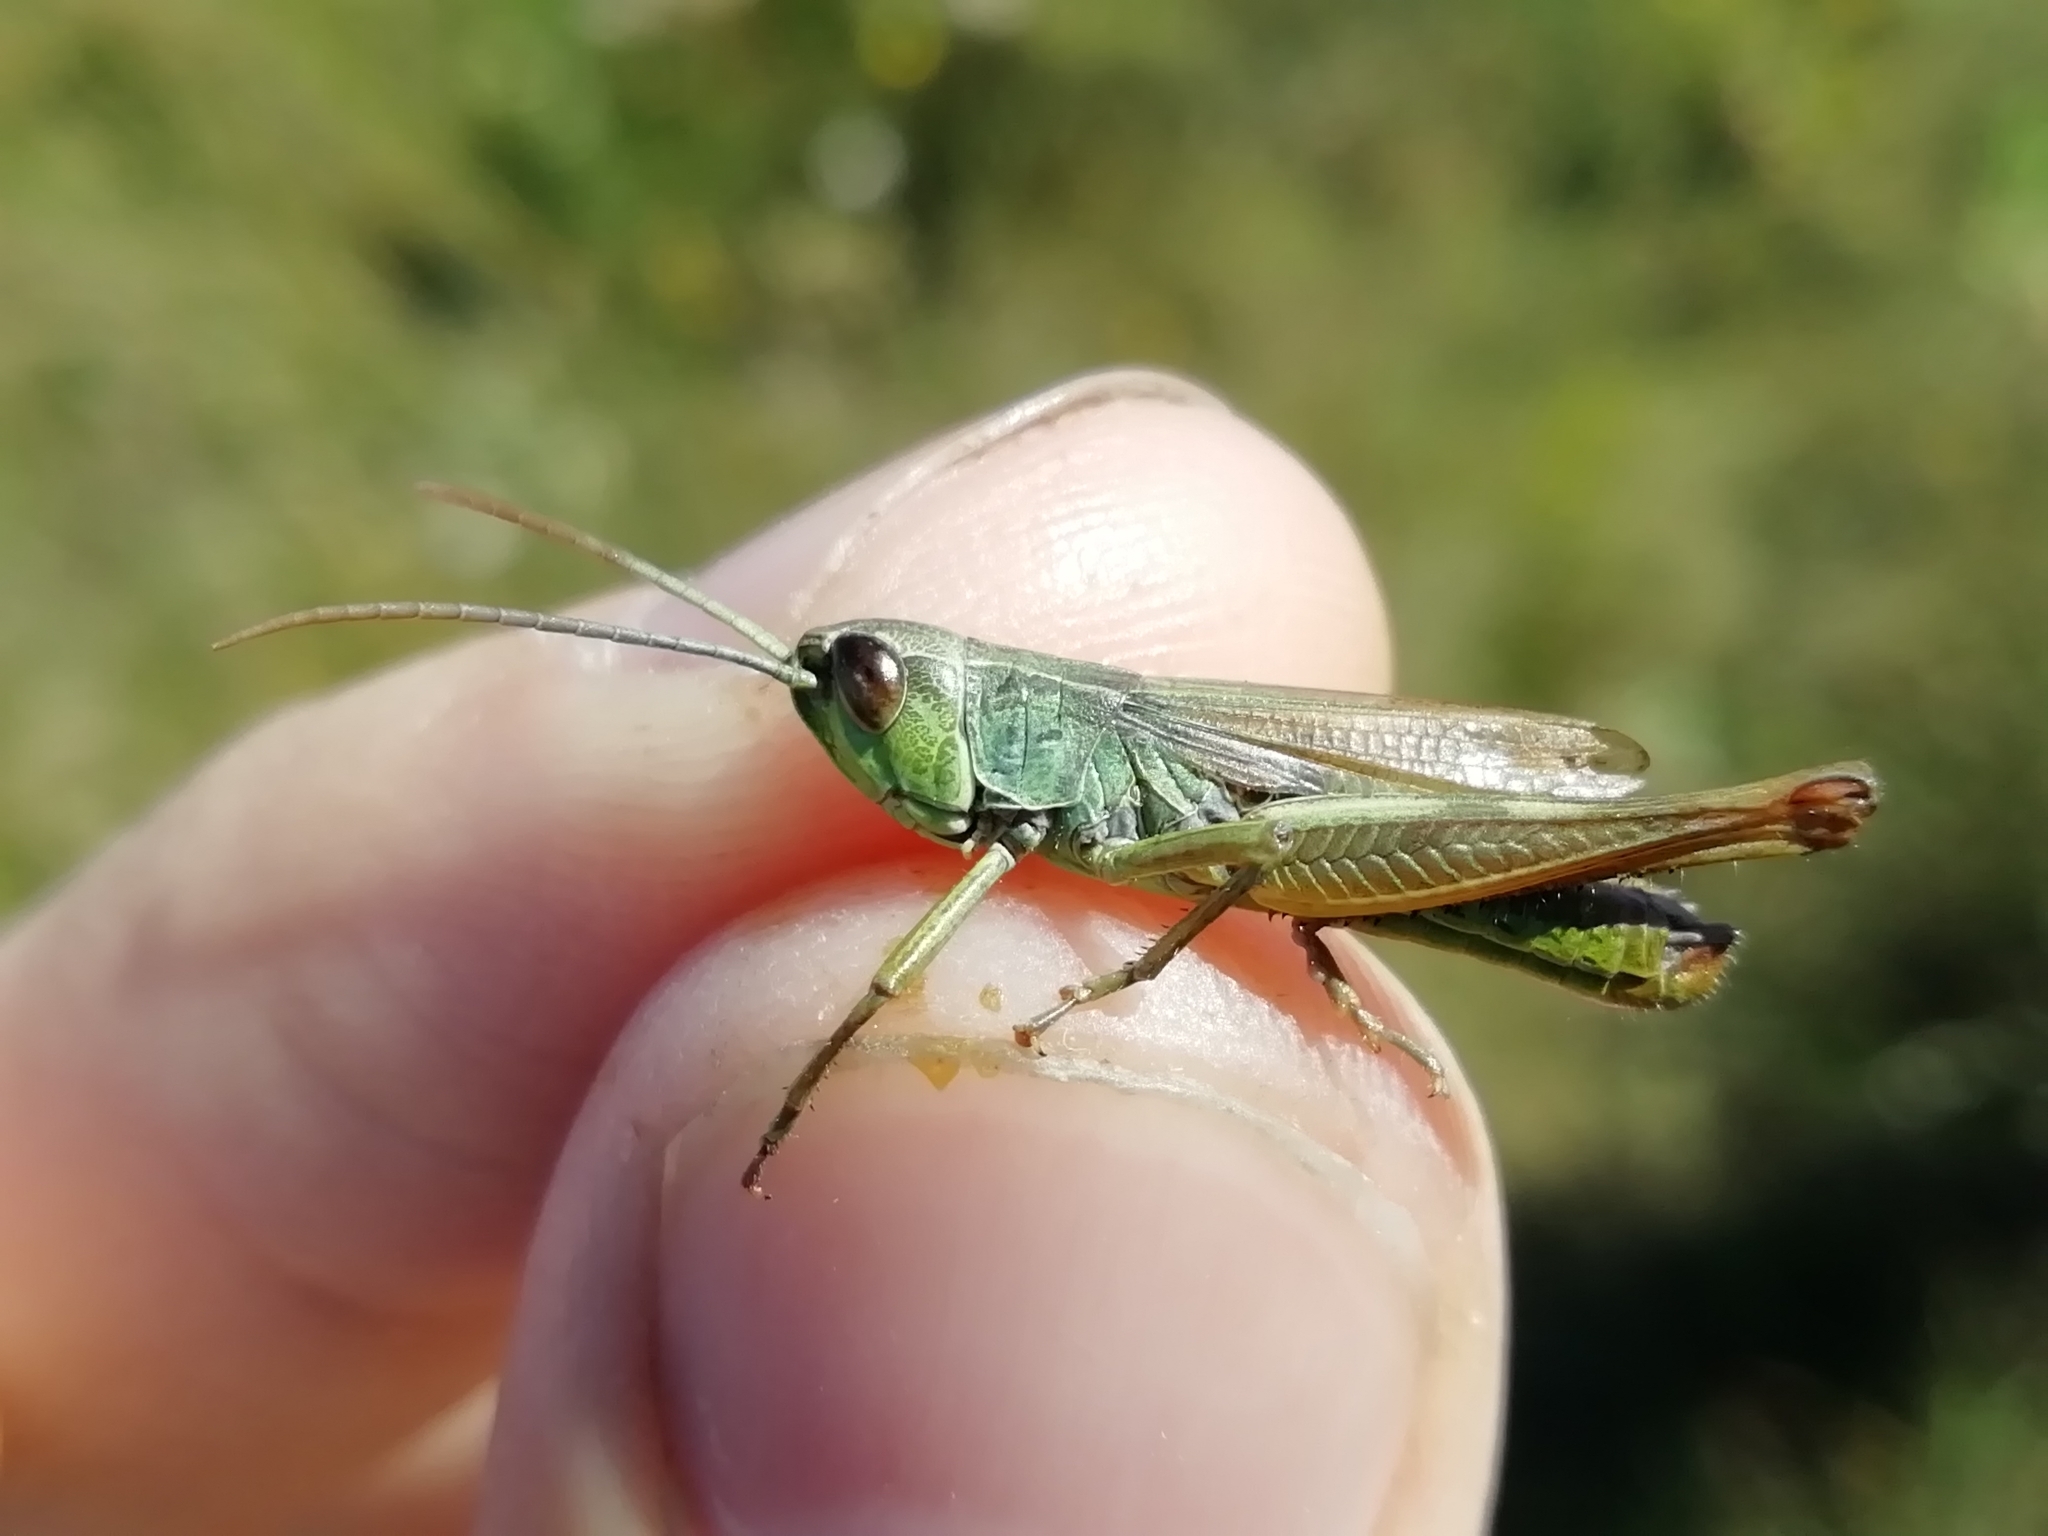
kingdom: Animalia
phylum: Arthropoda
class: Insecta
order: Orthoptera
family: Acrididae
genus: Pseudochorthippus
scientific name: Pseudochorthippus parallelus
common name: Meadow grasshopper
